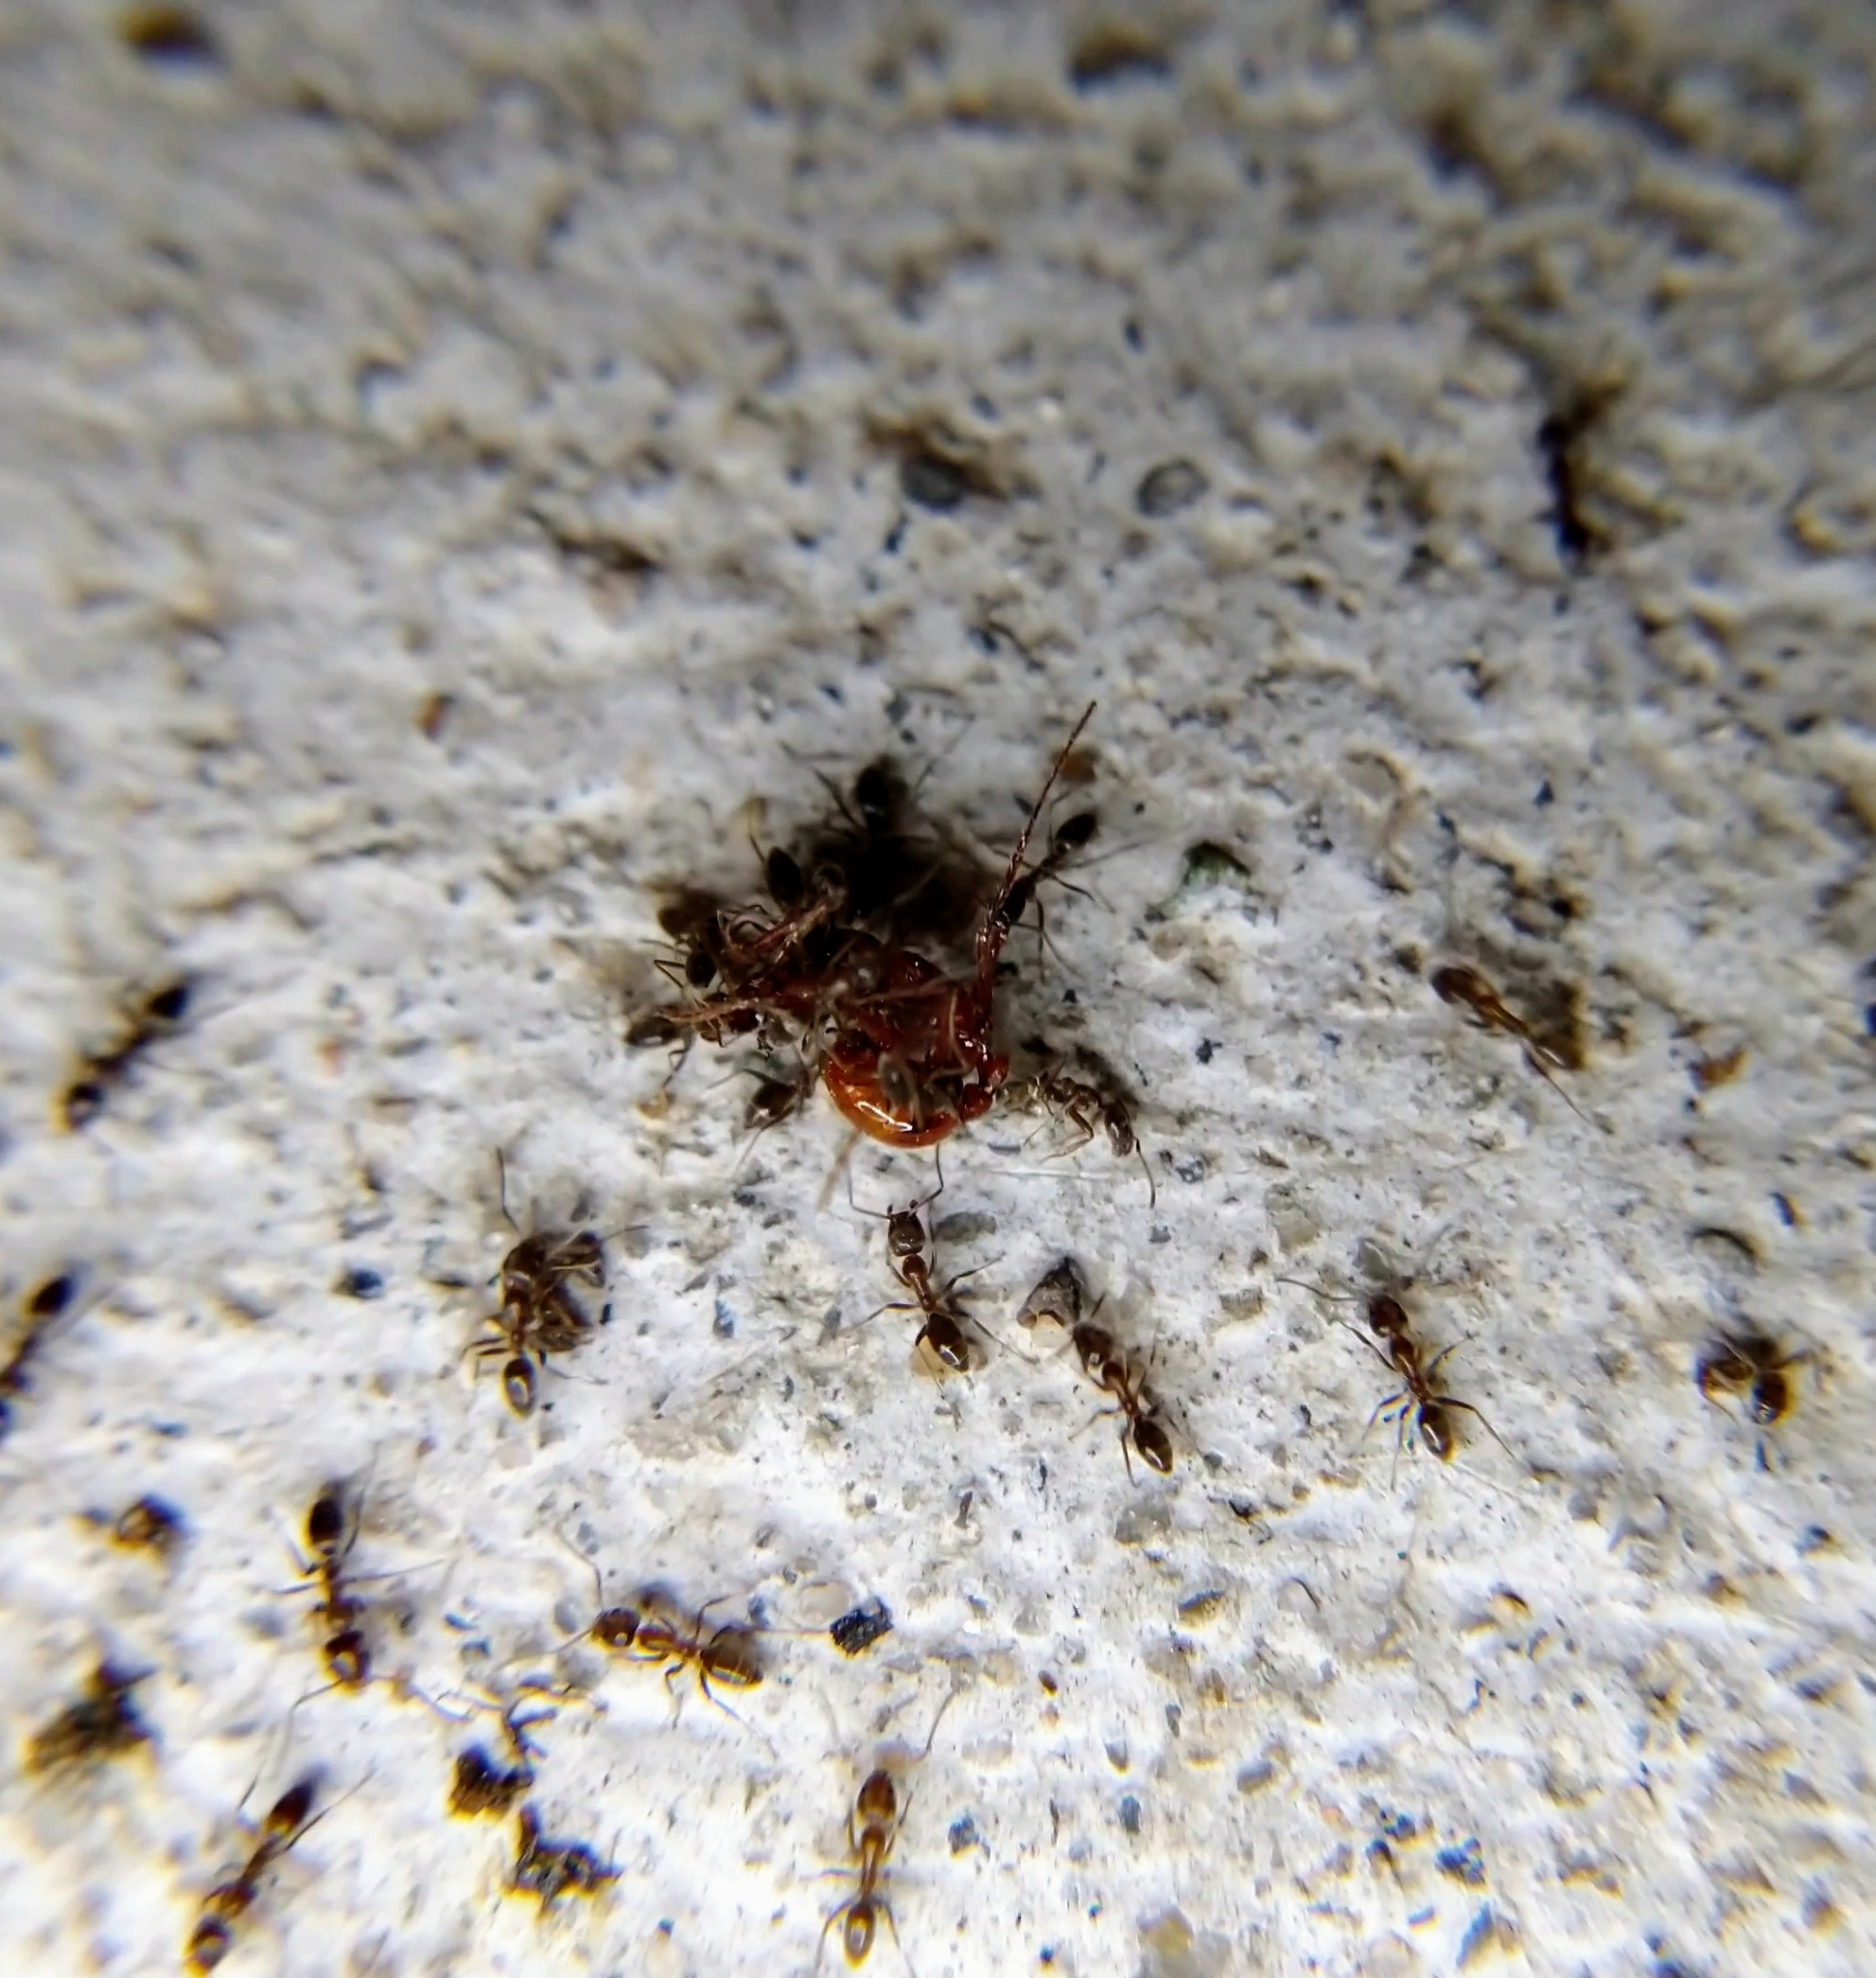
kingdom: Animalia
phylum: Arthropoda
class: Insecta
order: Hymenoptera
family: Formicidae
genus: Linepithema
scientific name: Linepithema humile
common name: Argentine ant
